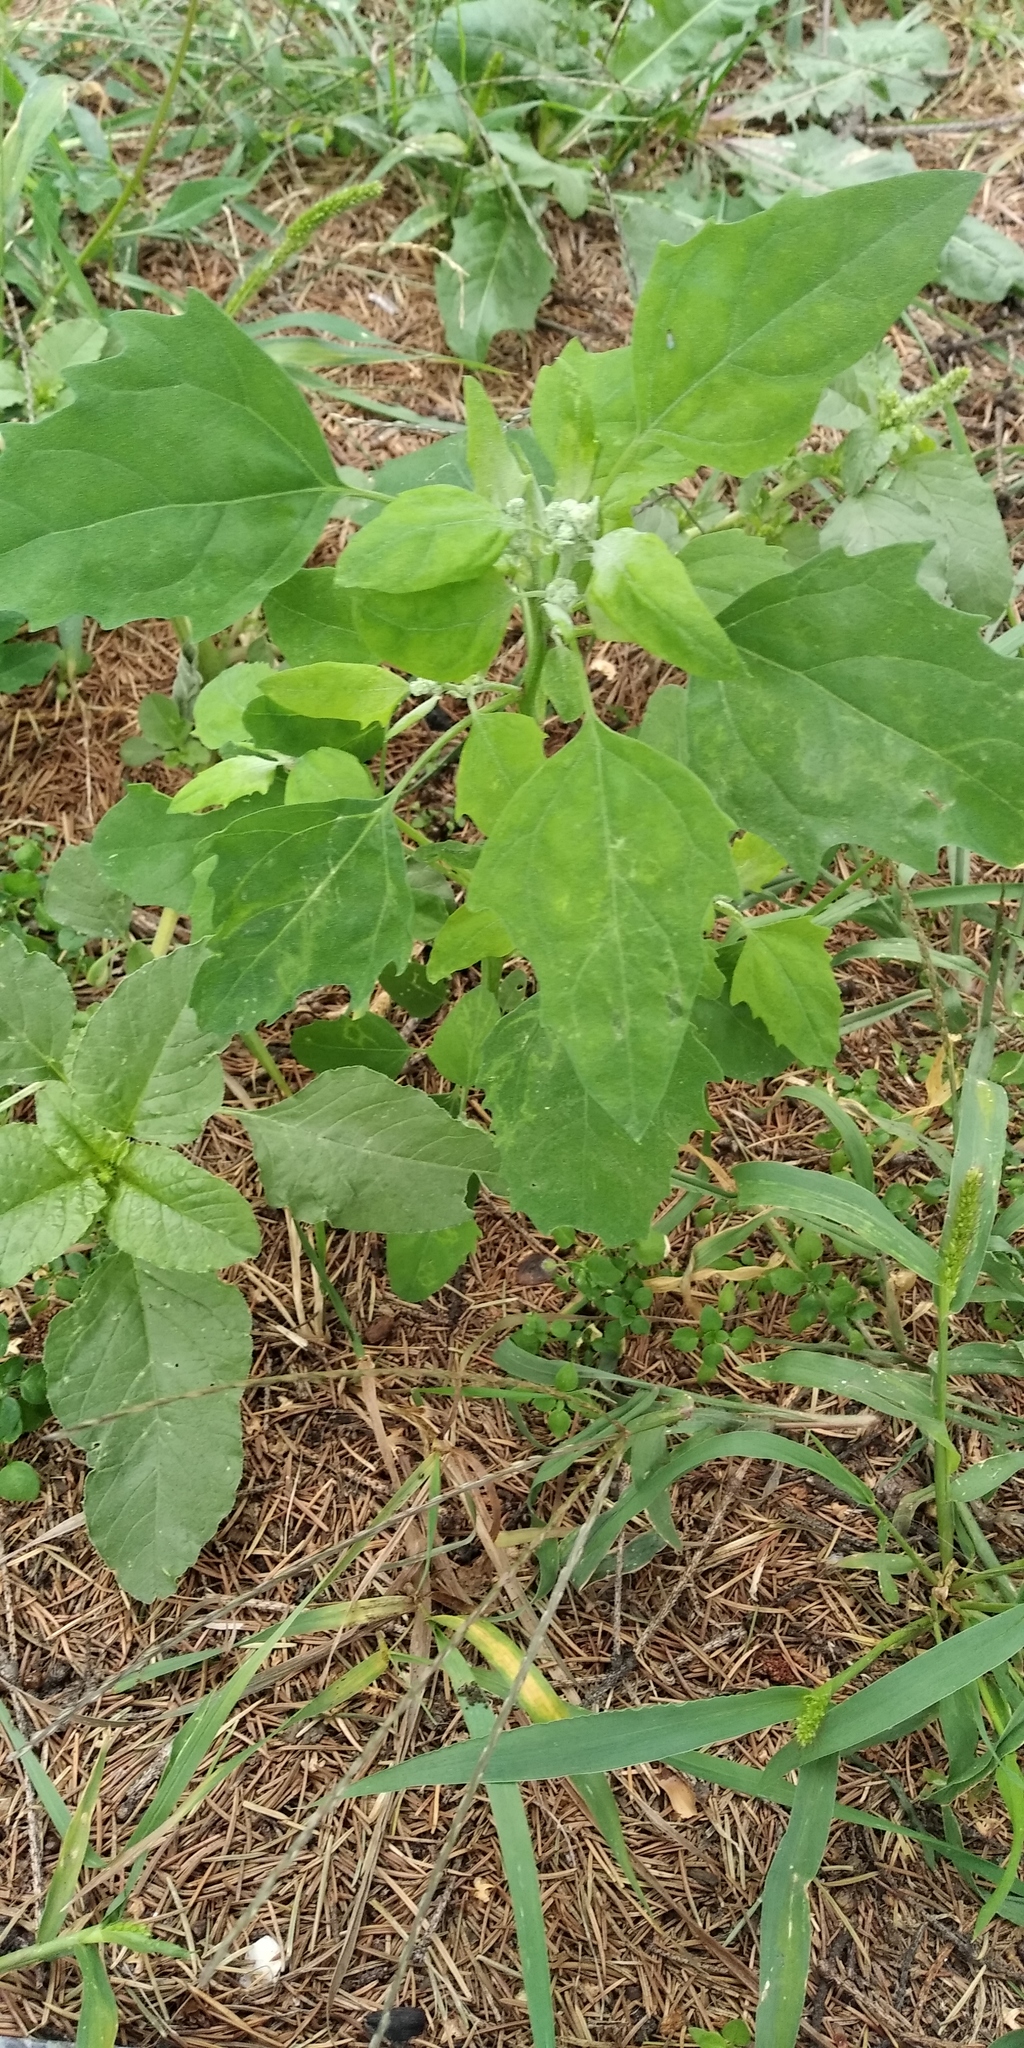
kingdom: Plantae
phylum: Tracheophyta
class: Magnoliopsida
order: Caryophyllales
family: Amaranthaceae
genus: Chenopodium
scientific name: Chenopodium album
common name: Fat-hen
